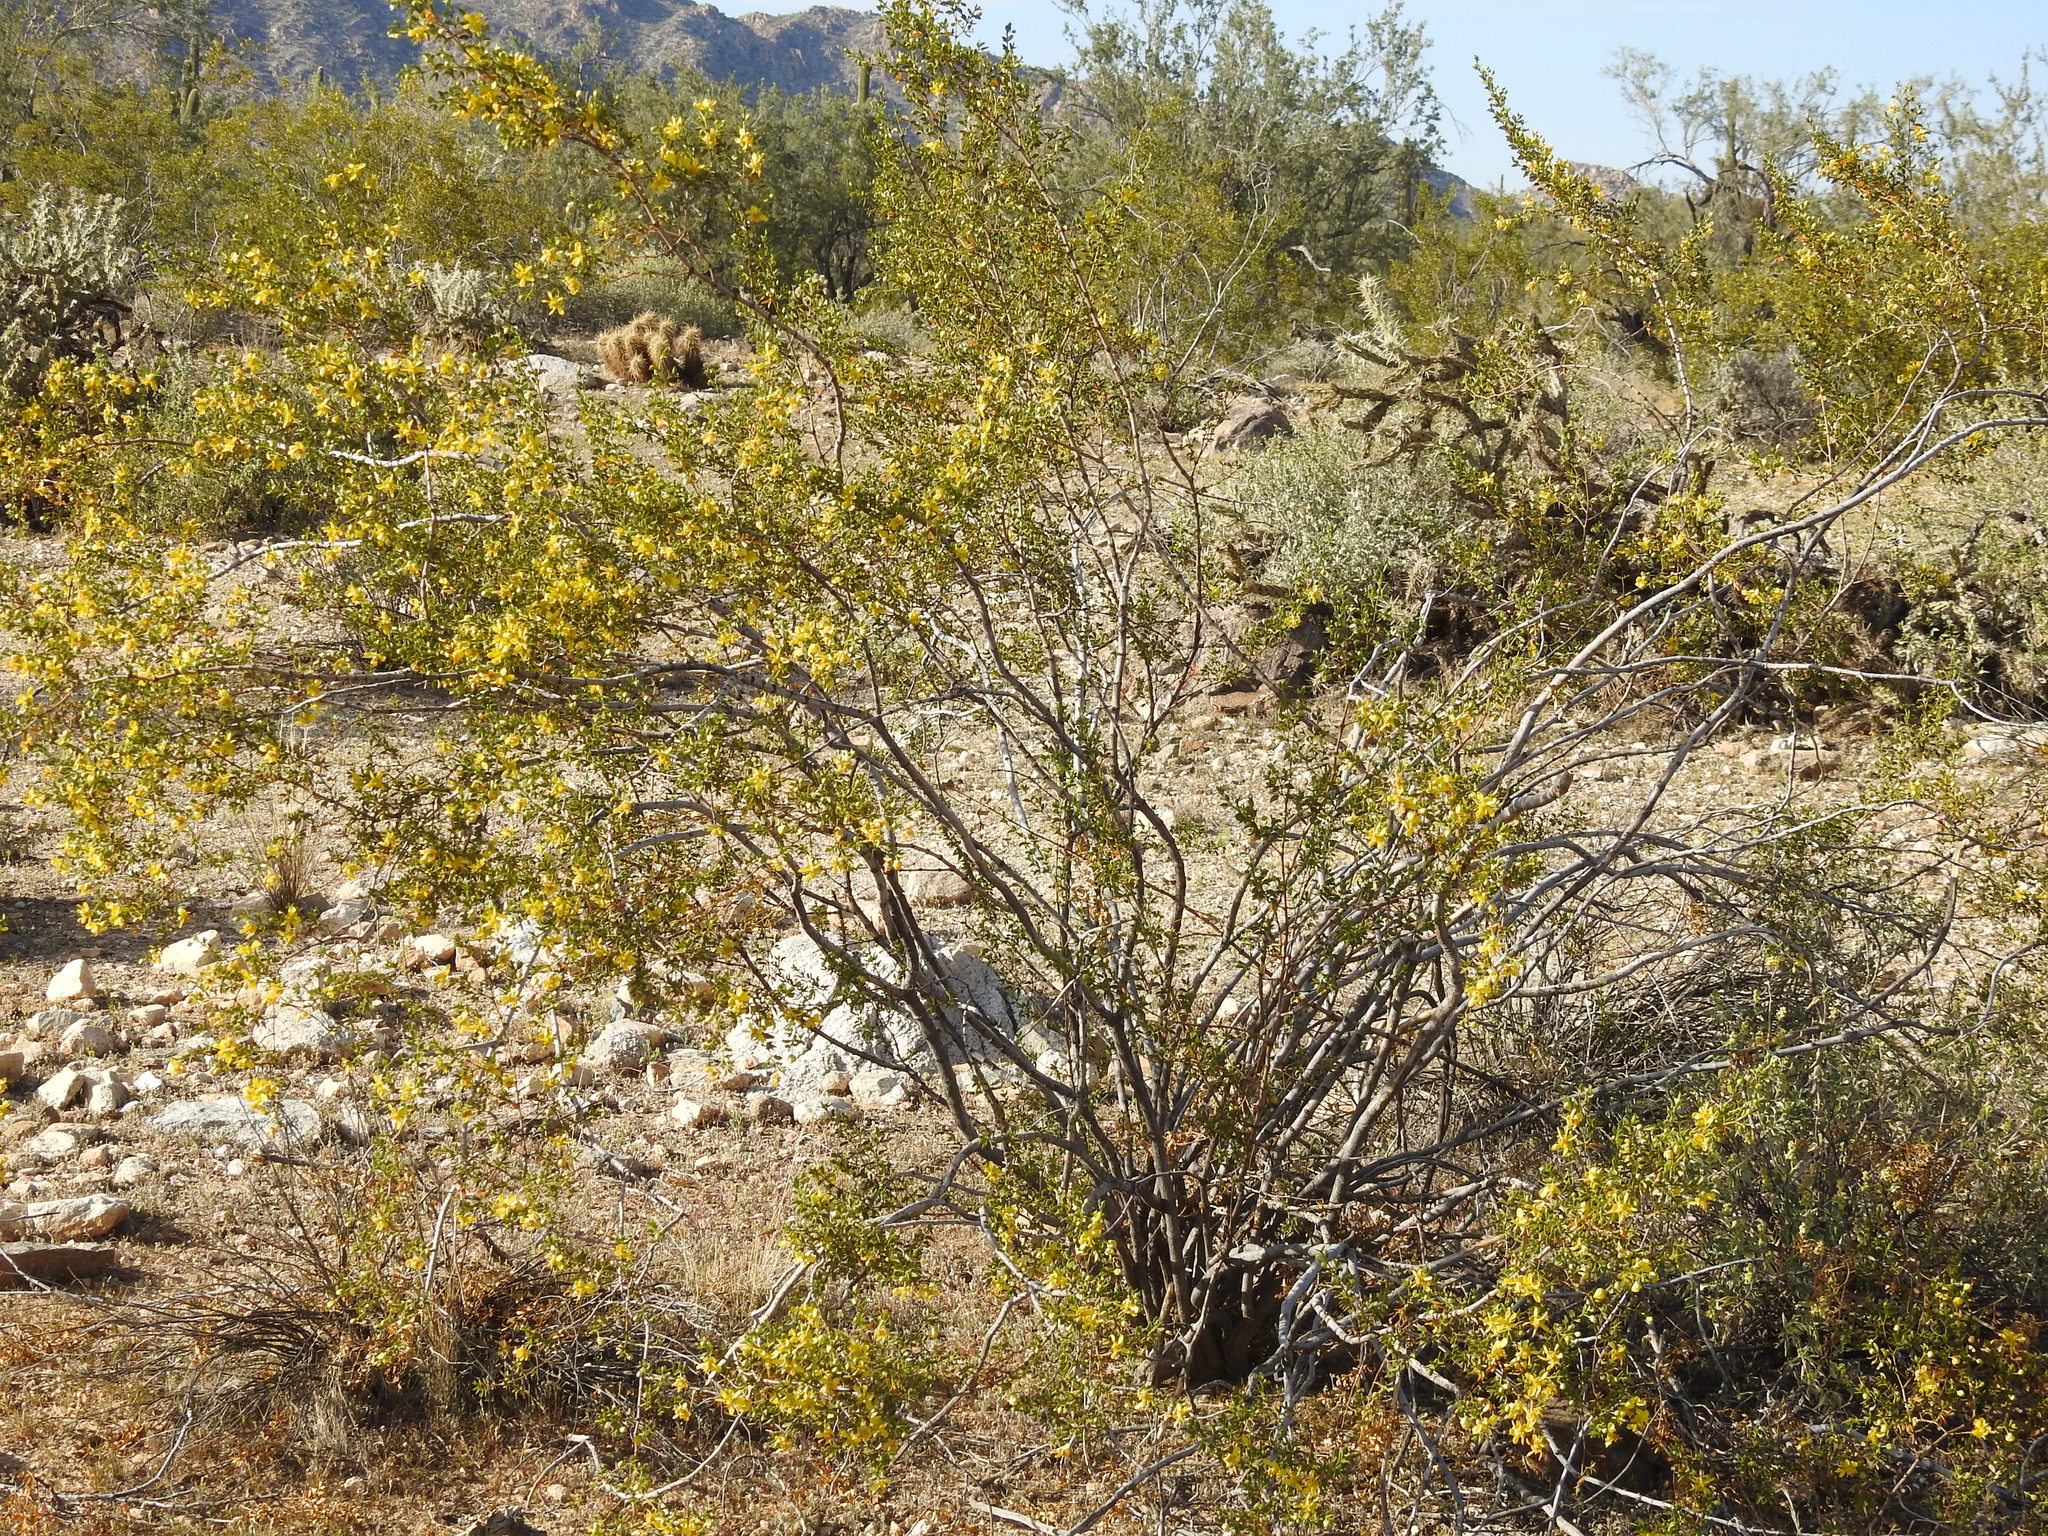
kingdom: Plantae
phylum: Tracheophyta
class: Magnoliopsida
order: Zygophyllales
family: Zygophyllaceae
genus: Larrea
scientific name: Larrea tridentata
